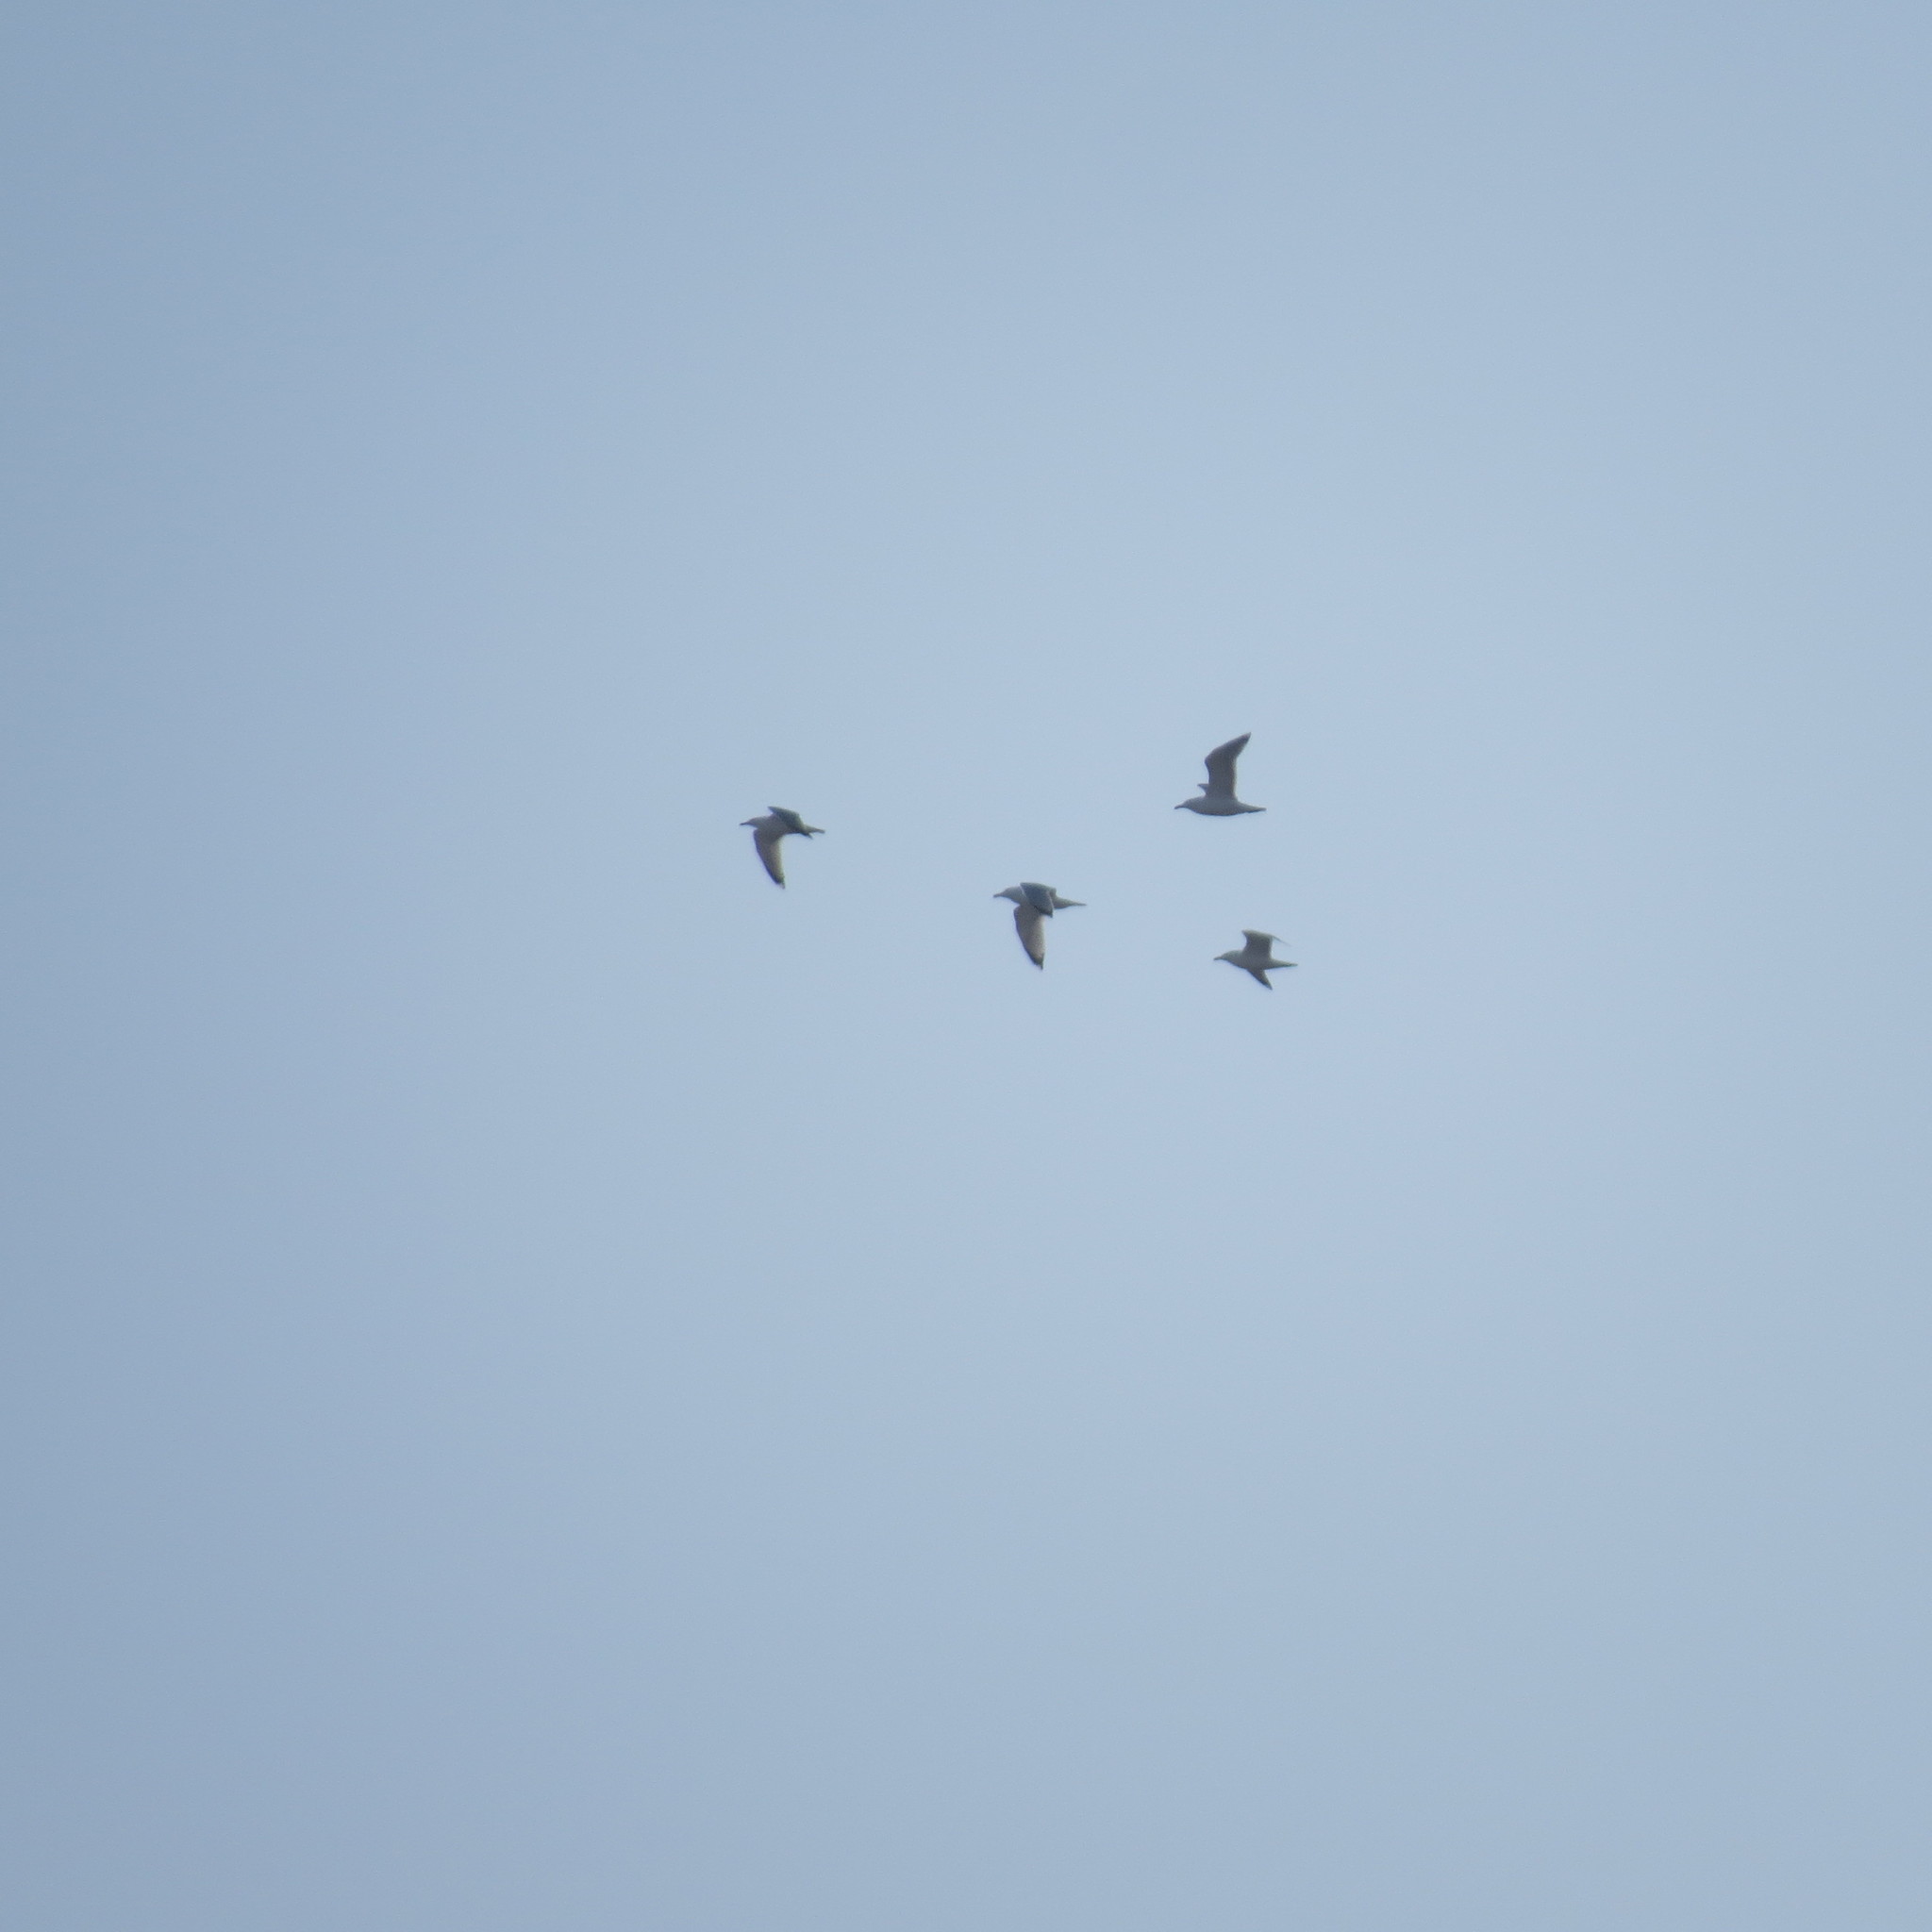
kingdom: Animalia
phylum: Chordata
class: Aves
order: Charadriiformes
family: Laridae
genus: Larus
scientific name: Larus argentatus
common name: Herring gull
